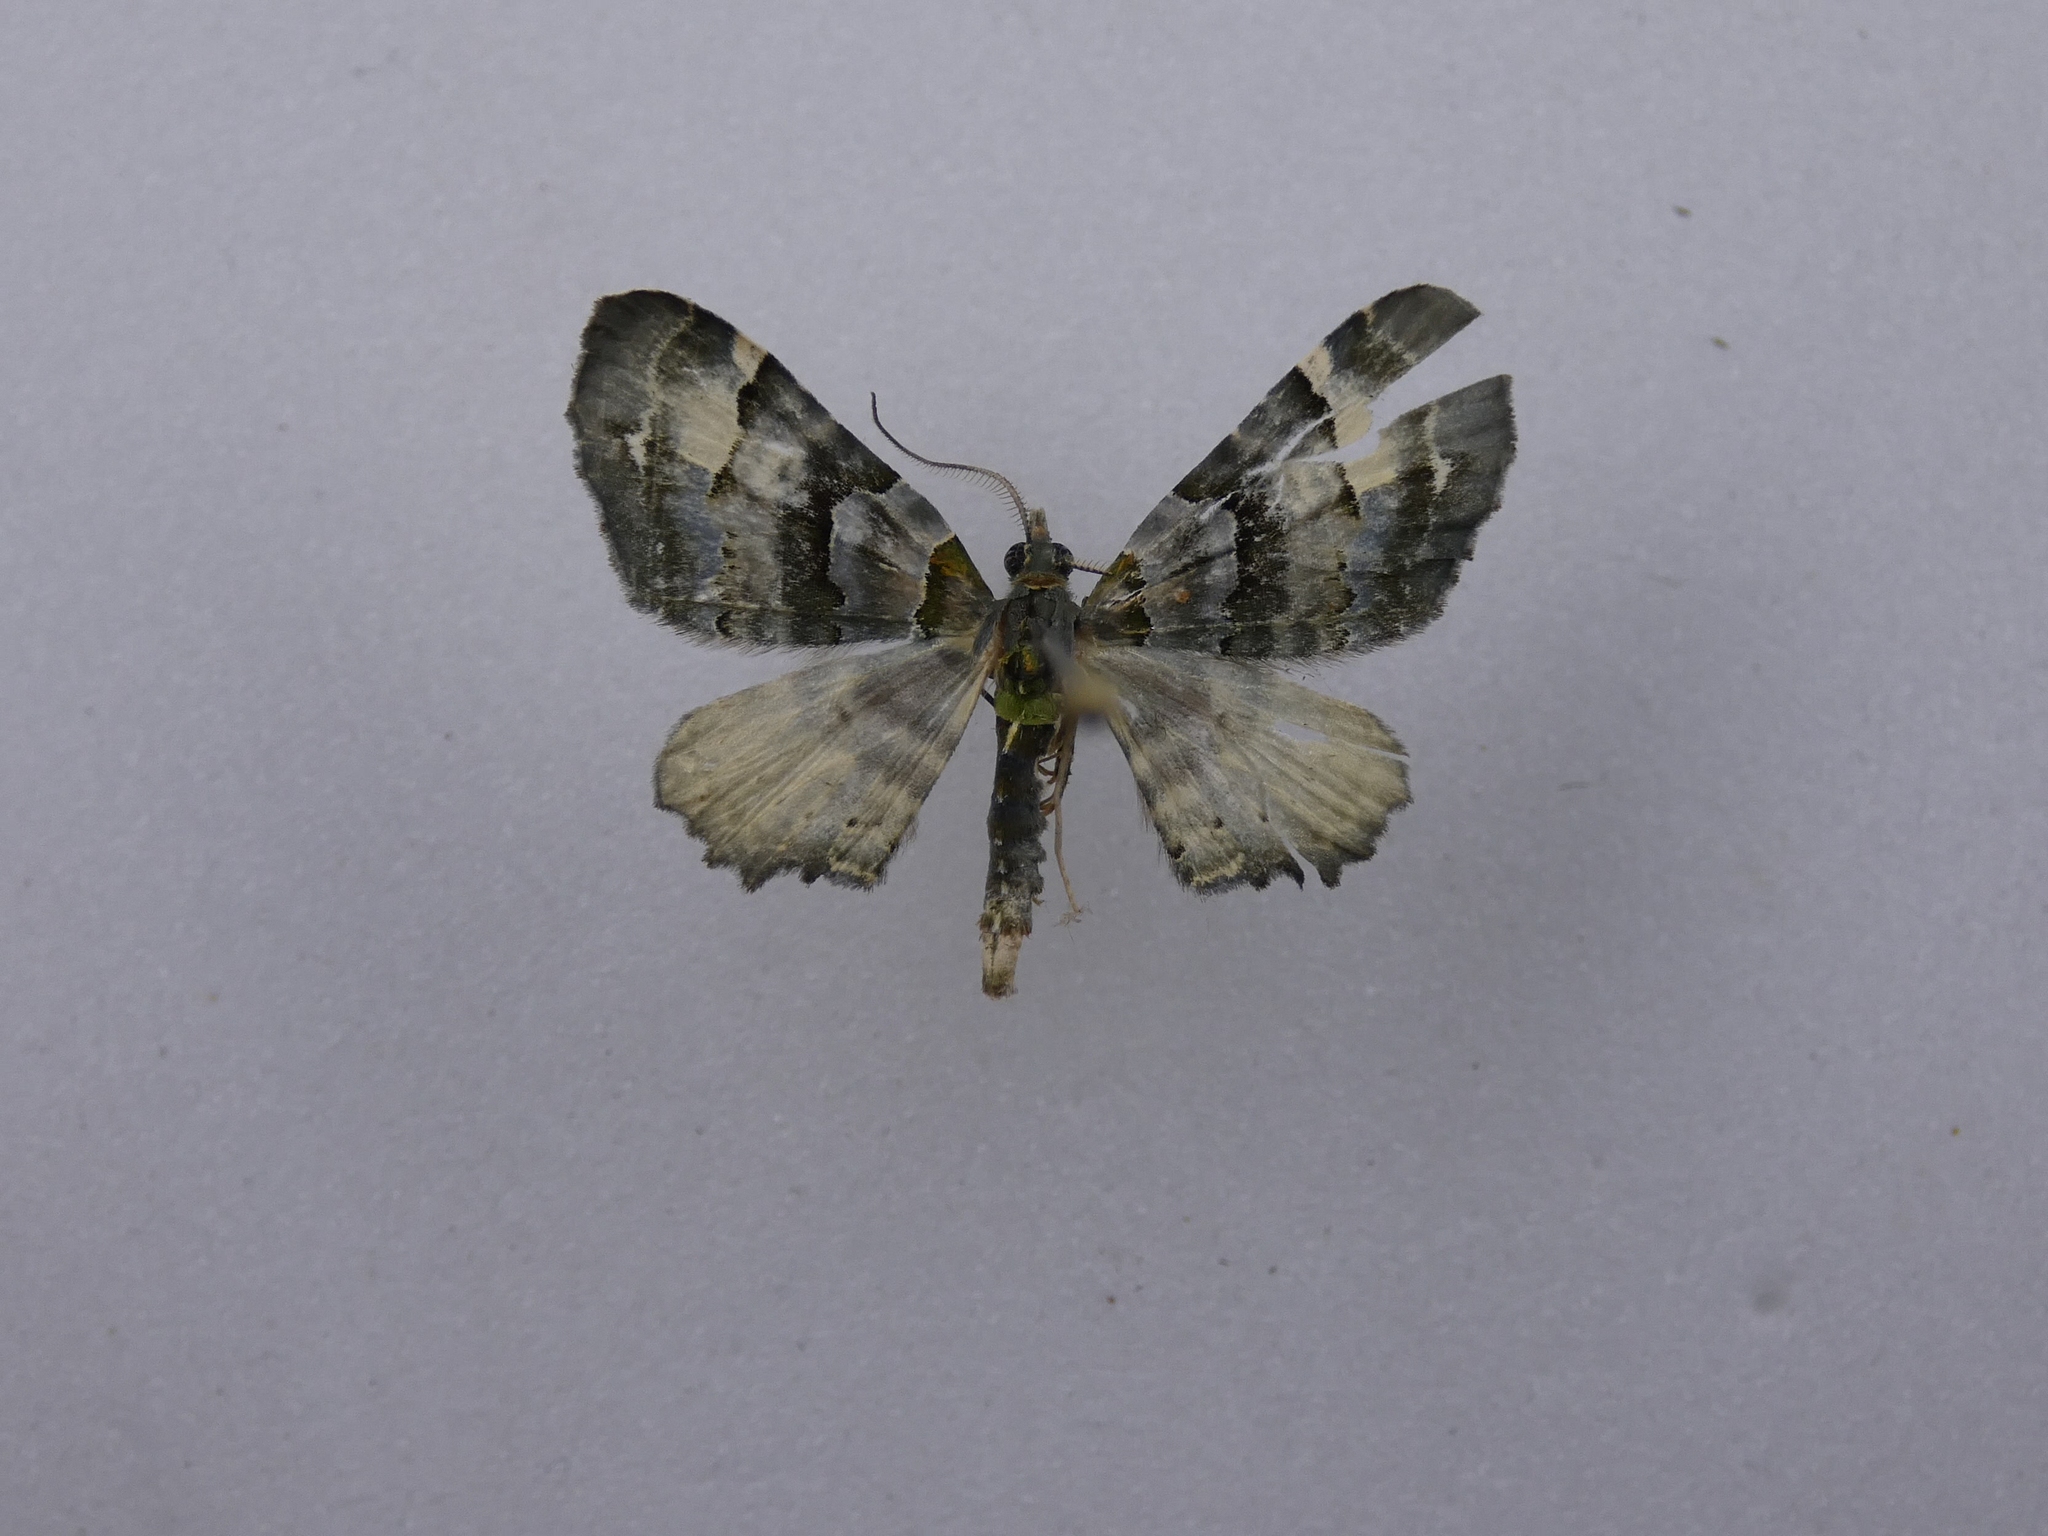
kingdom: Animalia
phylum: Arthropoda
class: Insecta
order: Lepidoptera
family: Geometridae
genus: Elvia
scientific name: Elvia glaucata
